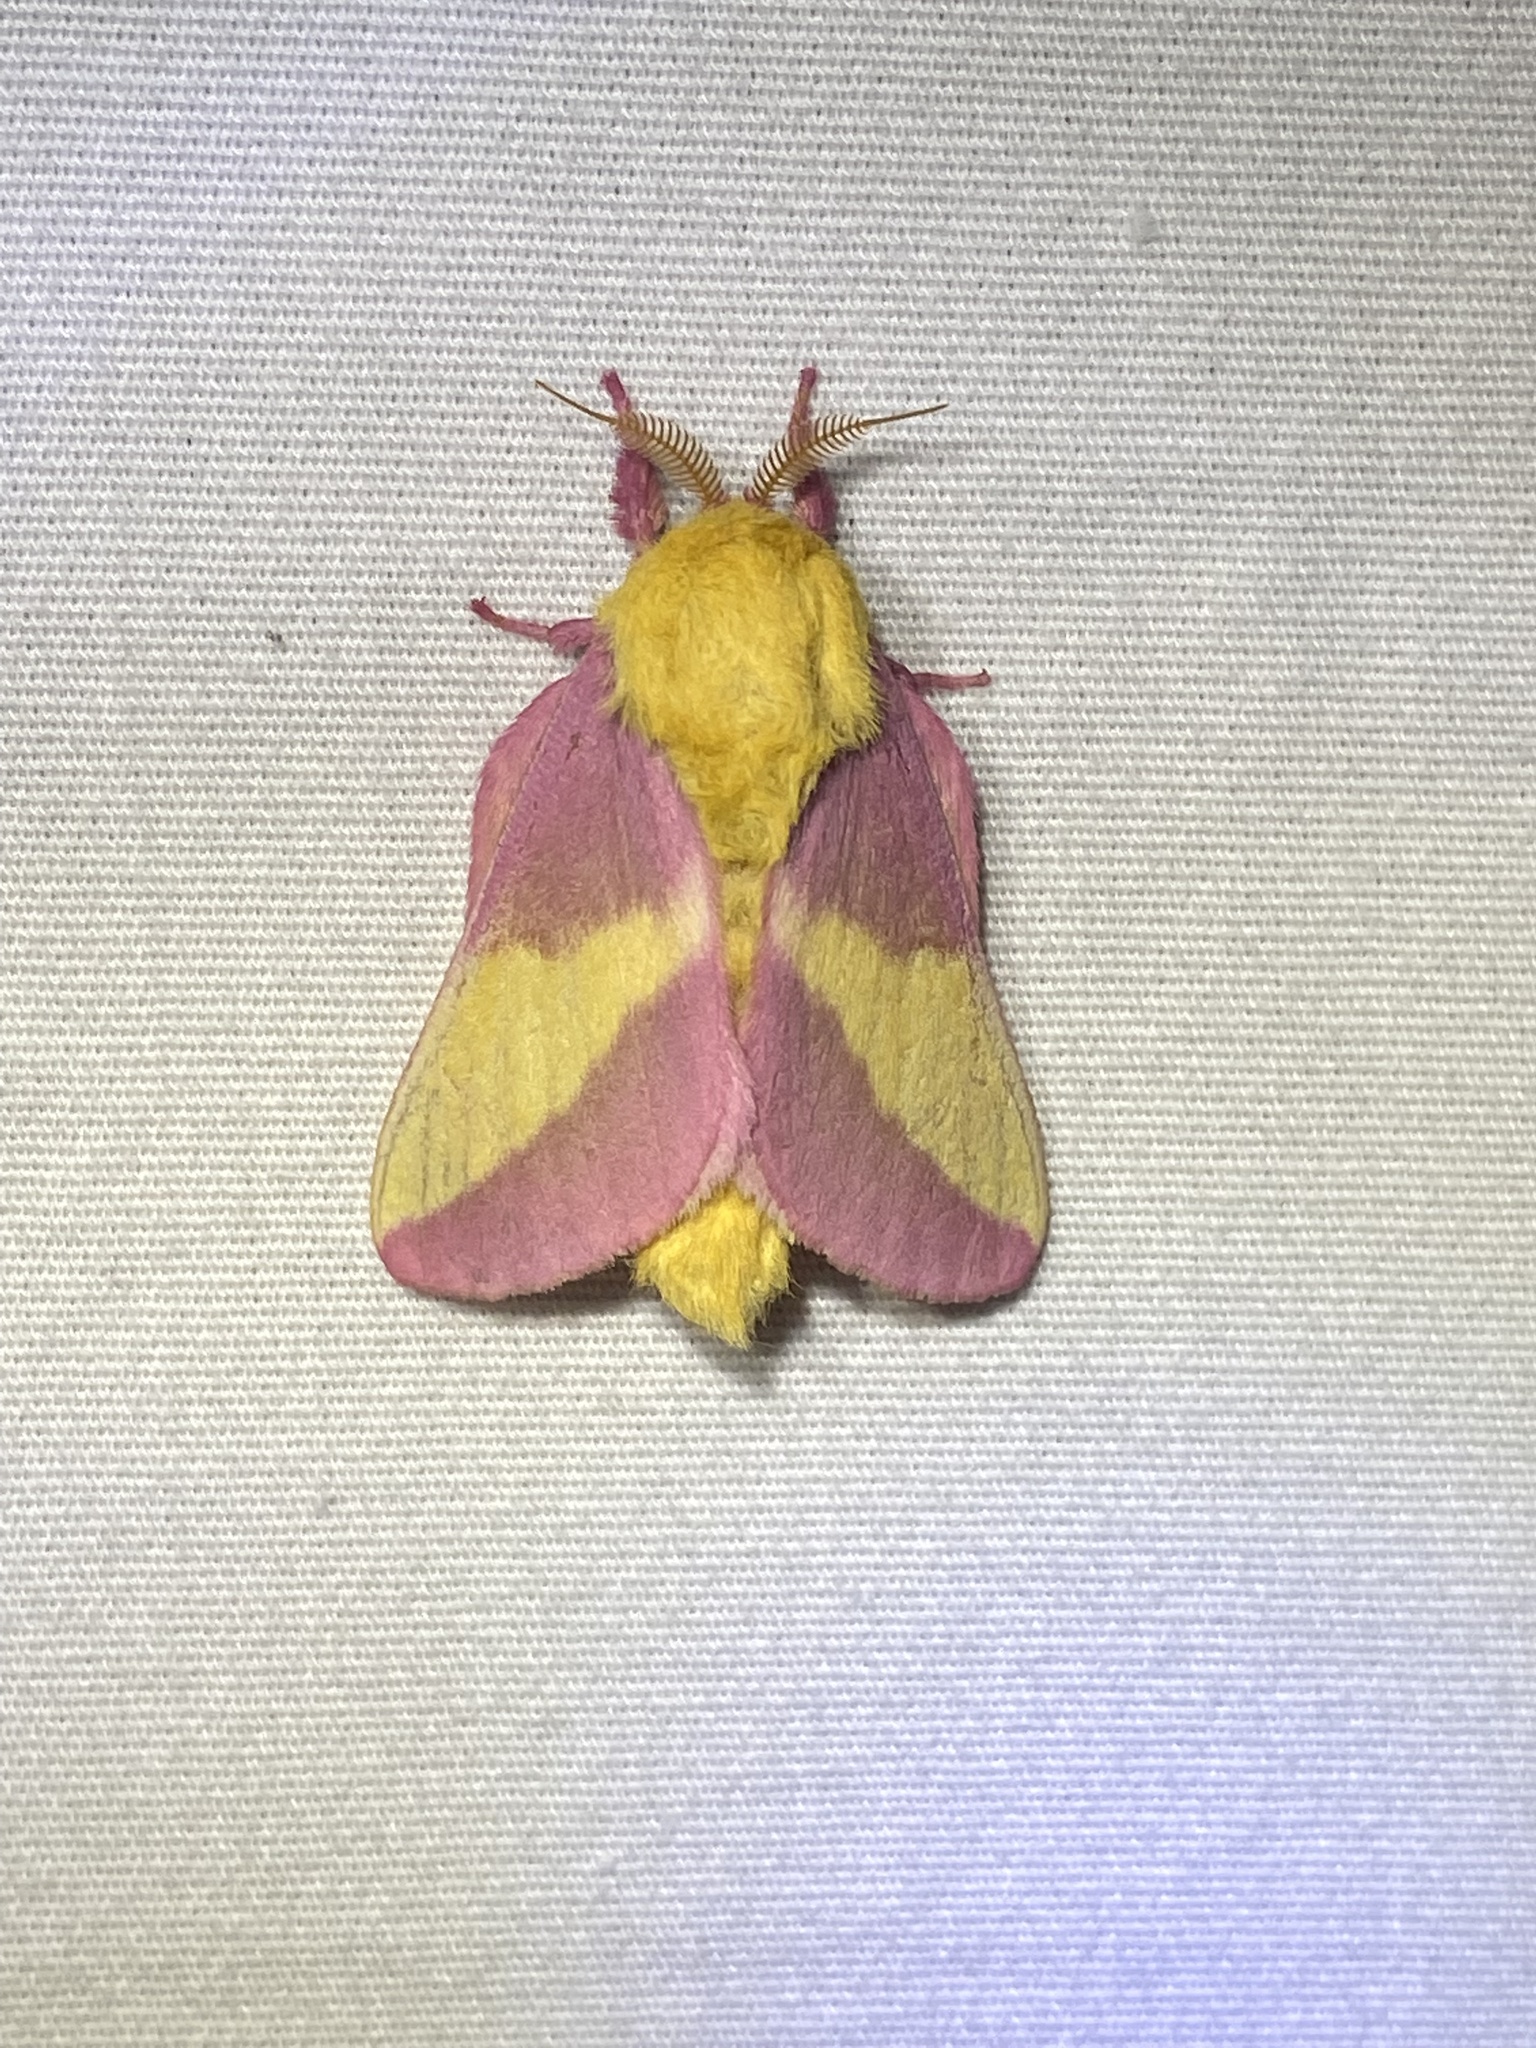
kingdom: Animalia
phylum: Arthropoda
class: Insecta
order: Lepidoptera
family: Saturniidae
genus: Dryocampa
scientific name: Dryocampa rubicunda
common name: Rosy maple moth
